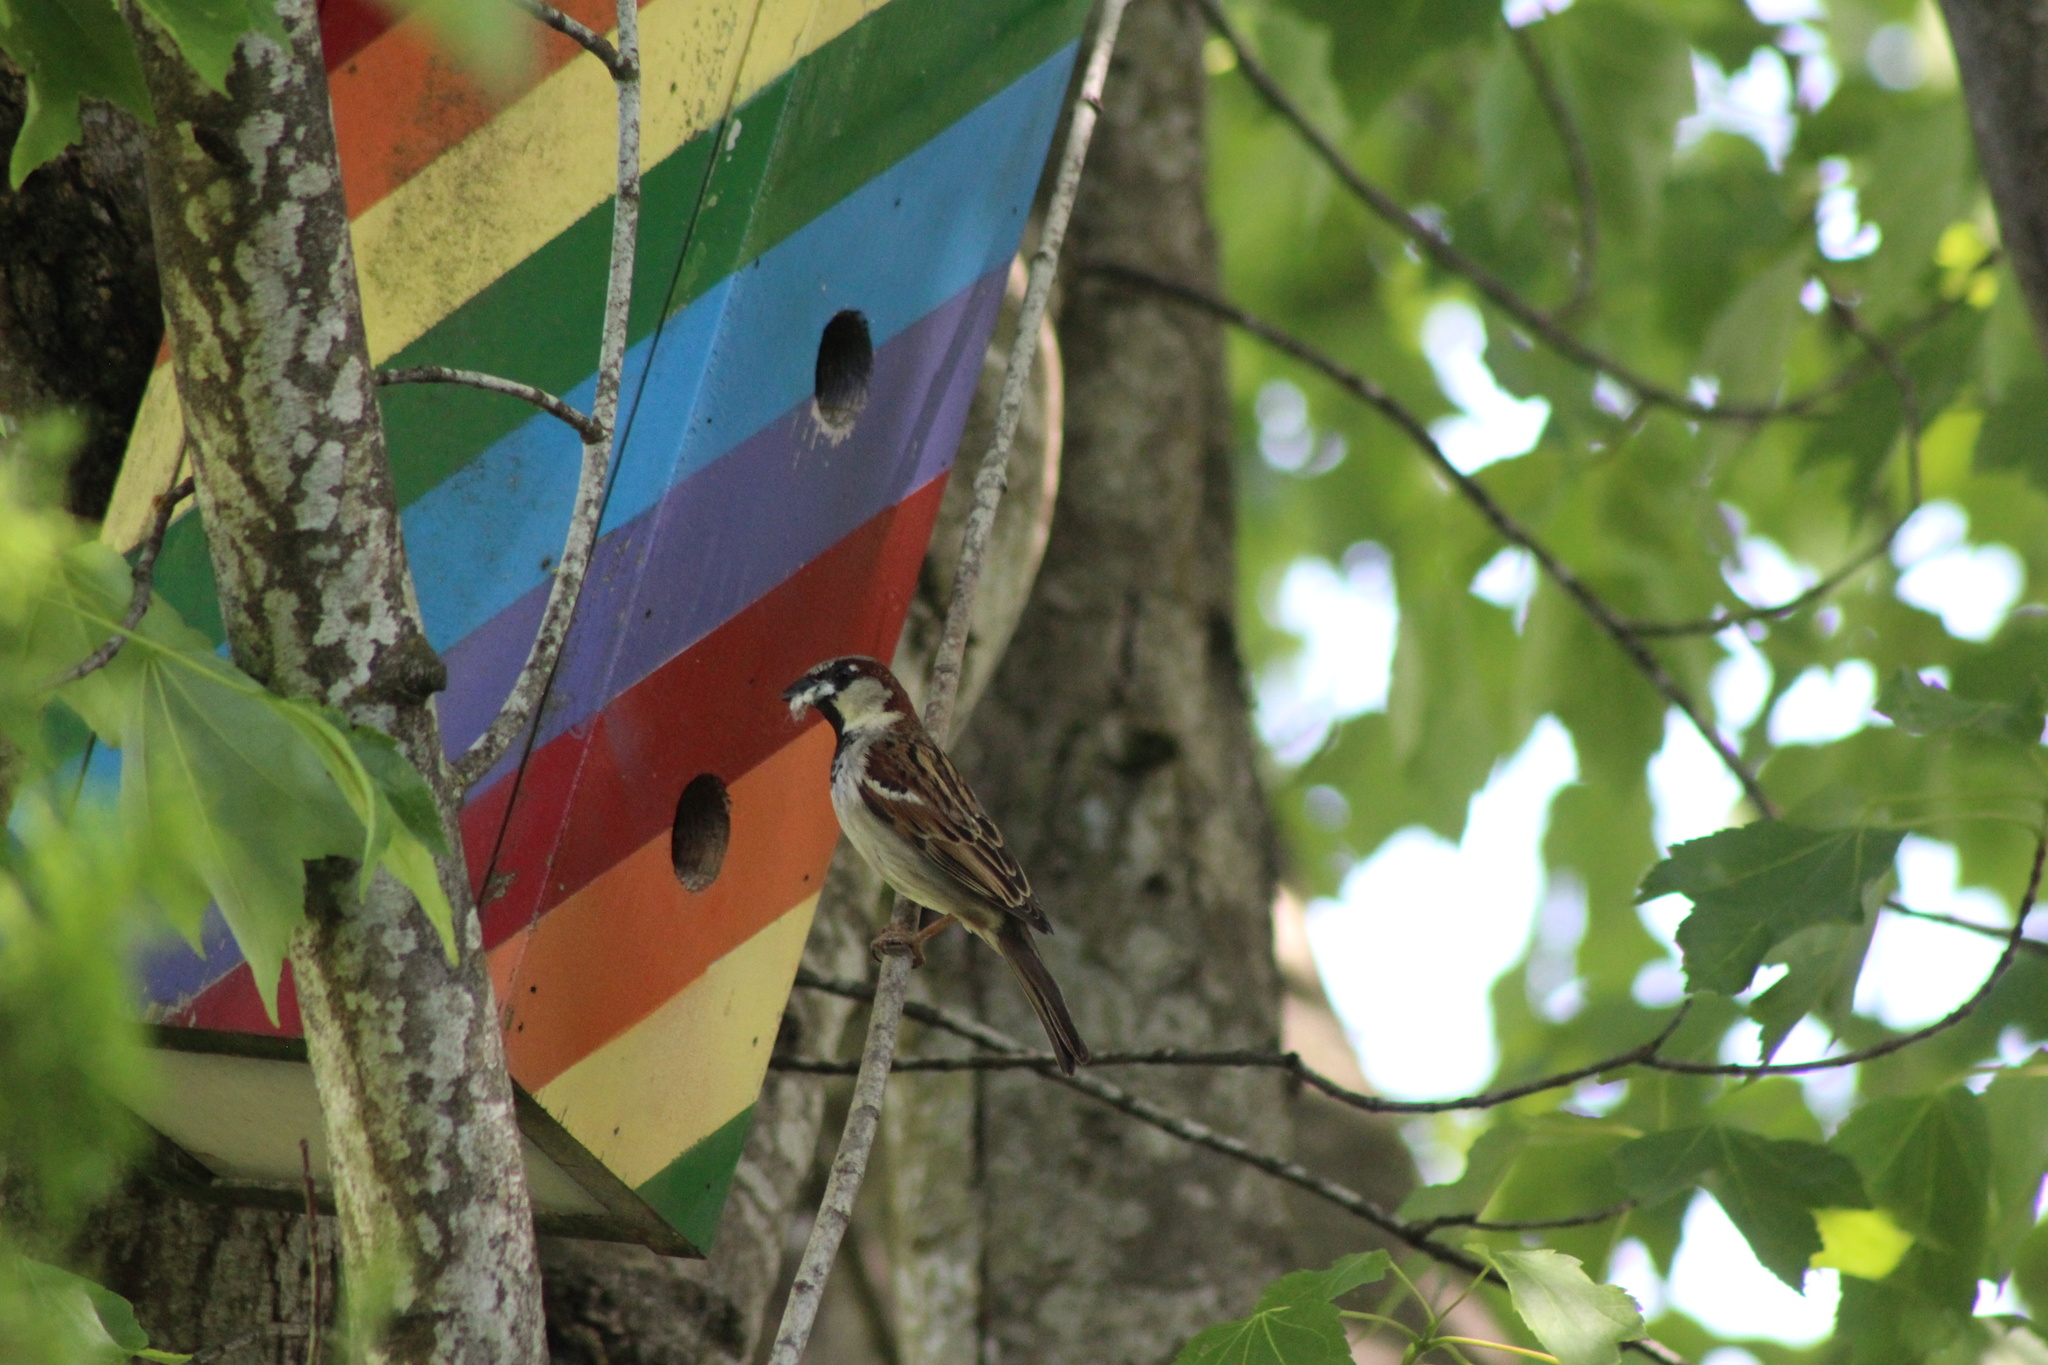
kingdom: Animalia
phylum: Chordata
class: Aves
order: Passeriformes
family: Passeridae
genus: Passer
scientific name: Passer domesticus
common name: House sparrow
